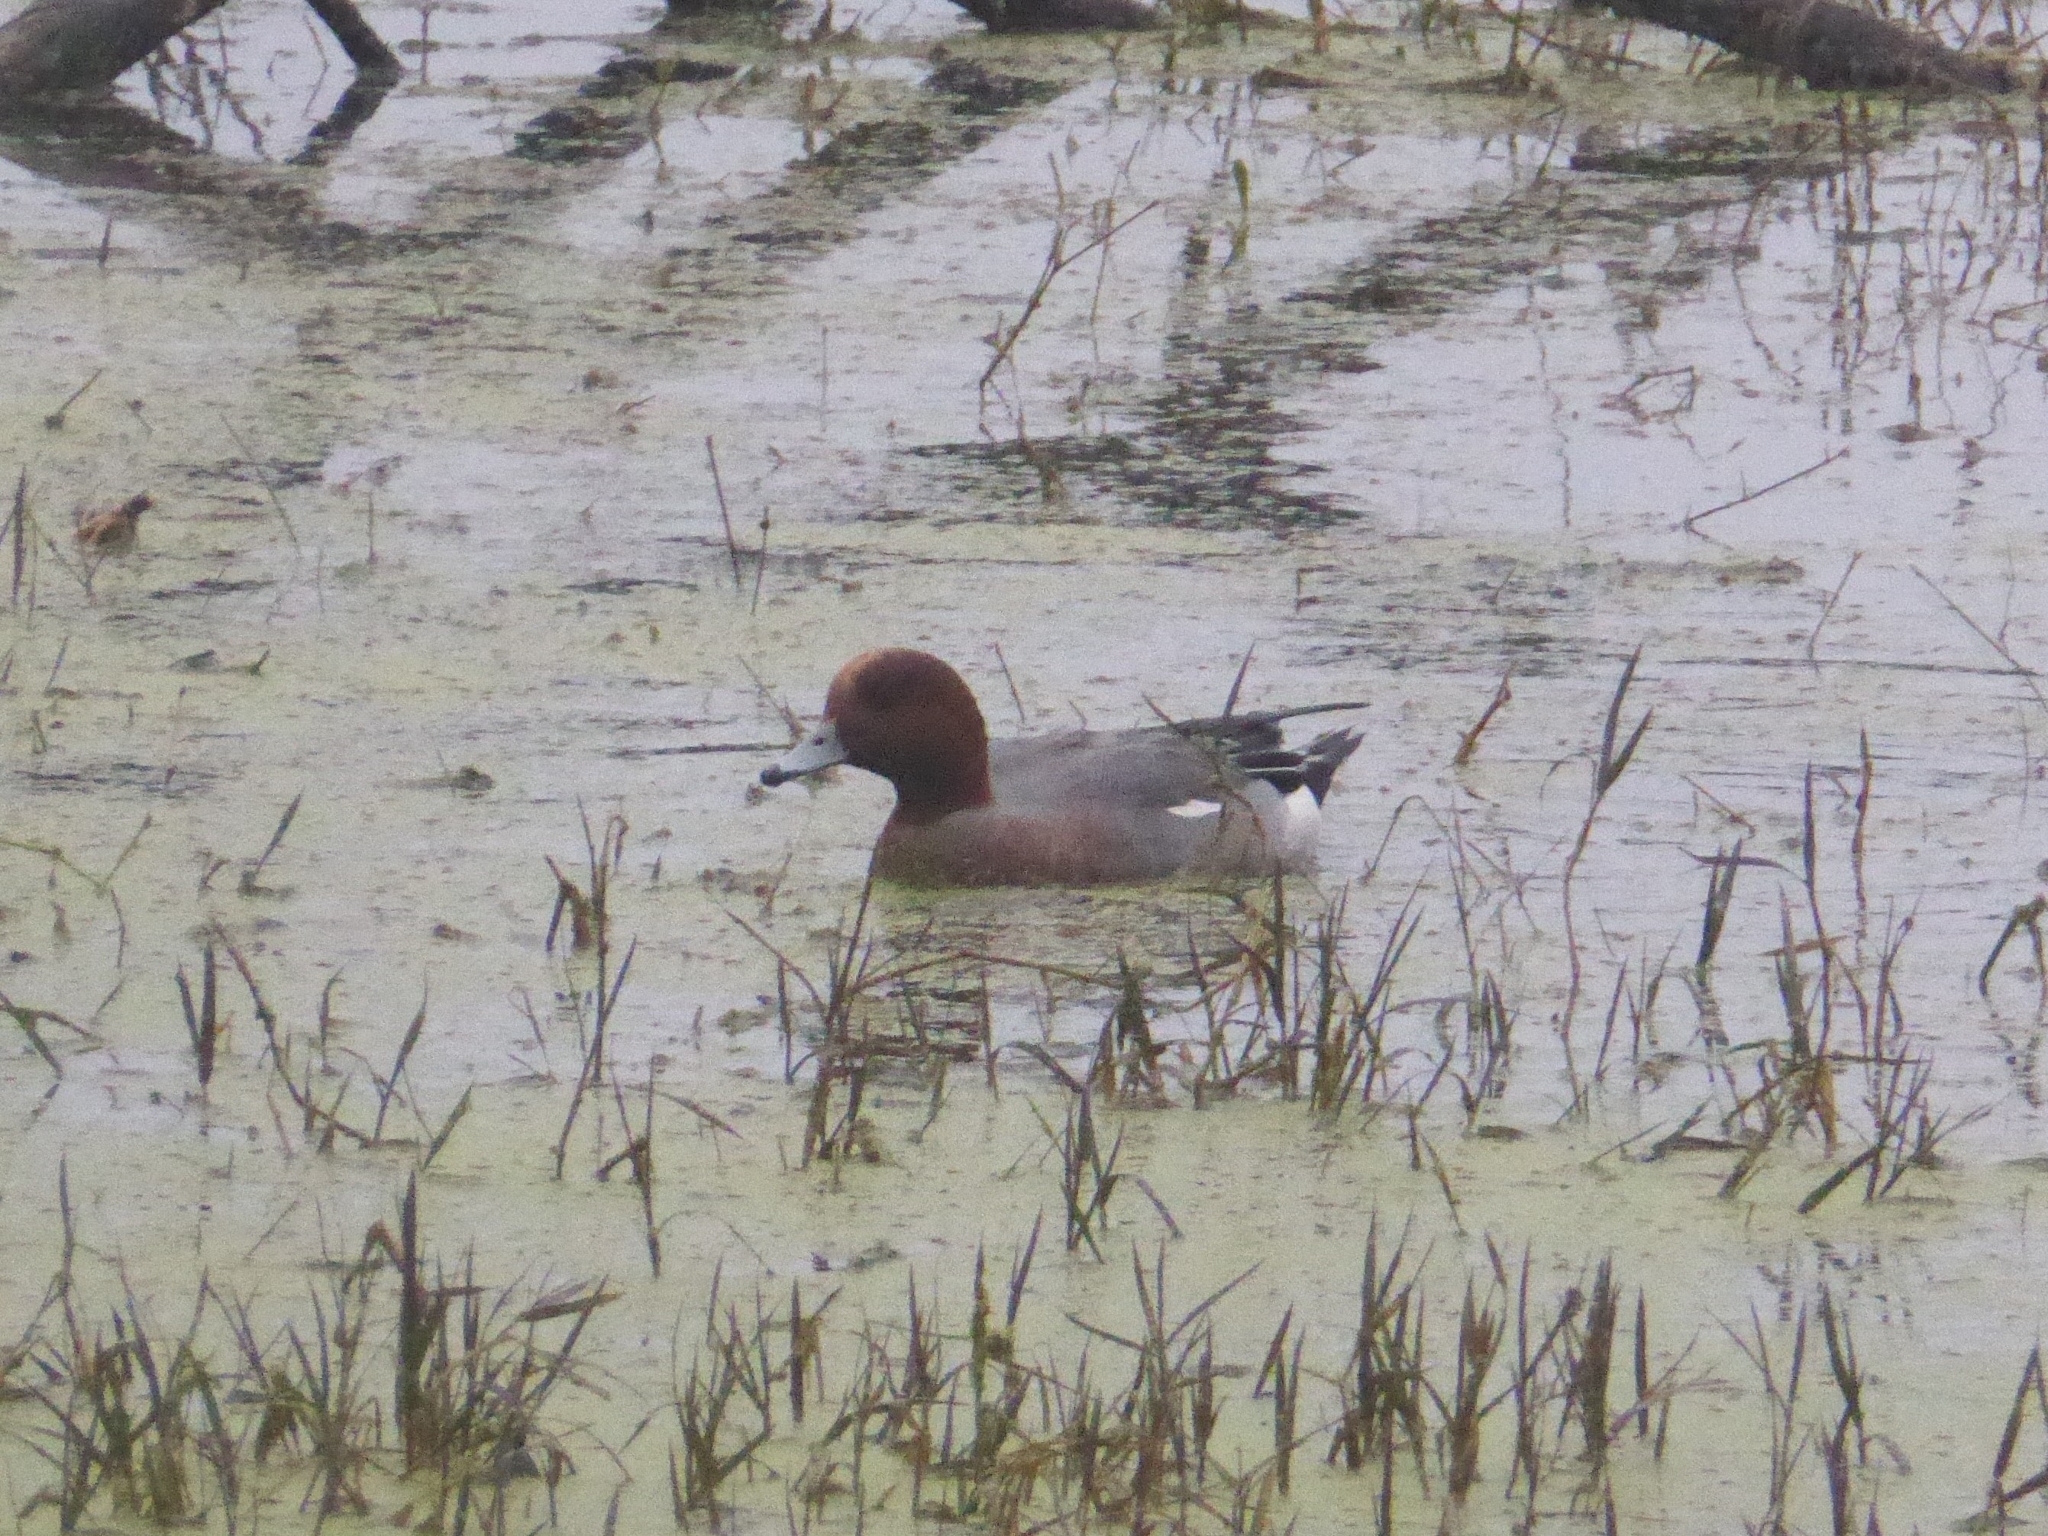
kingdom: Animalia
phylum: Chordata
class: Aves
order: Anseriformes
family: Anatidae
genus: Mareca
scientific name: Mareca penelope
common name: Eurasian wigeon
